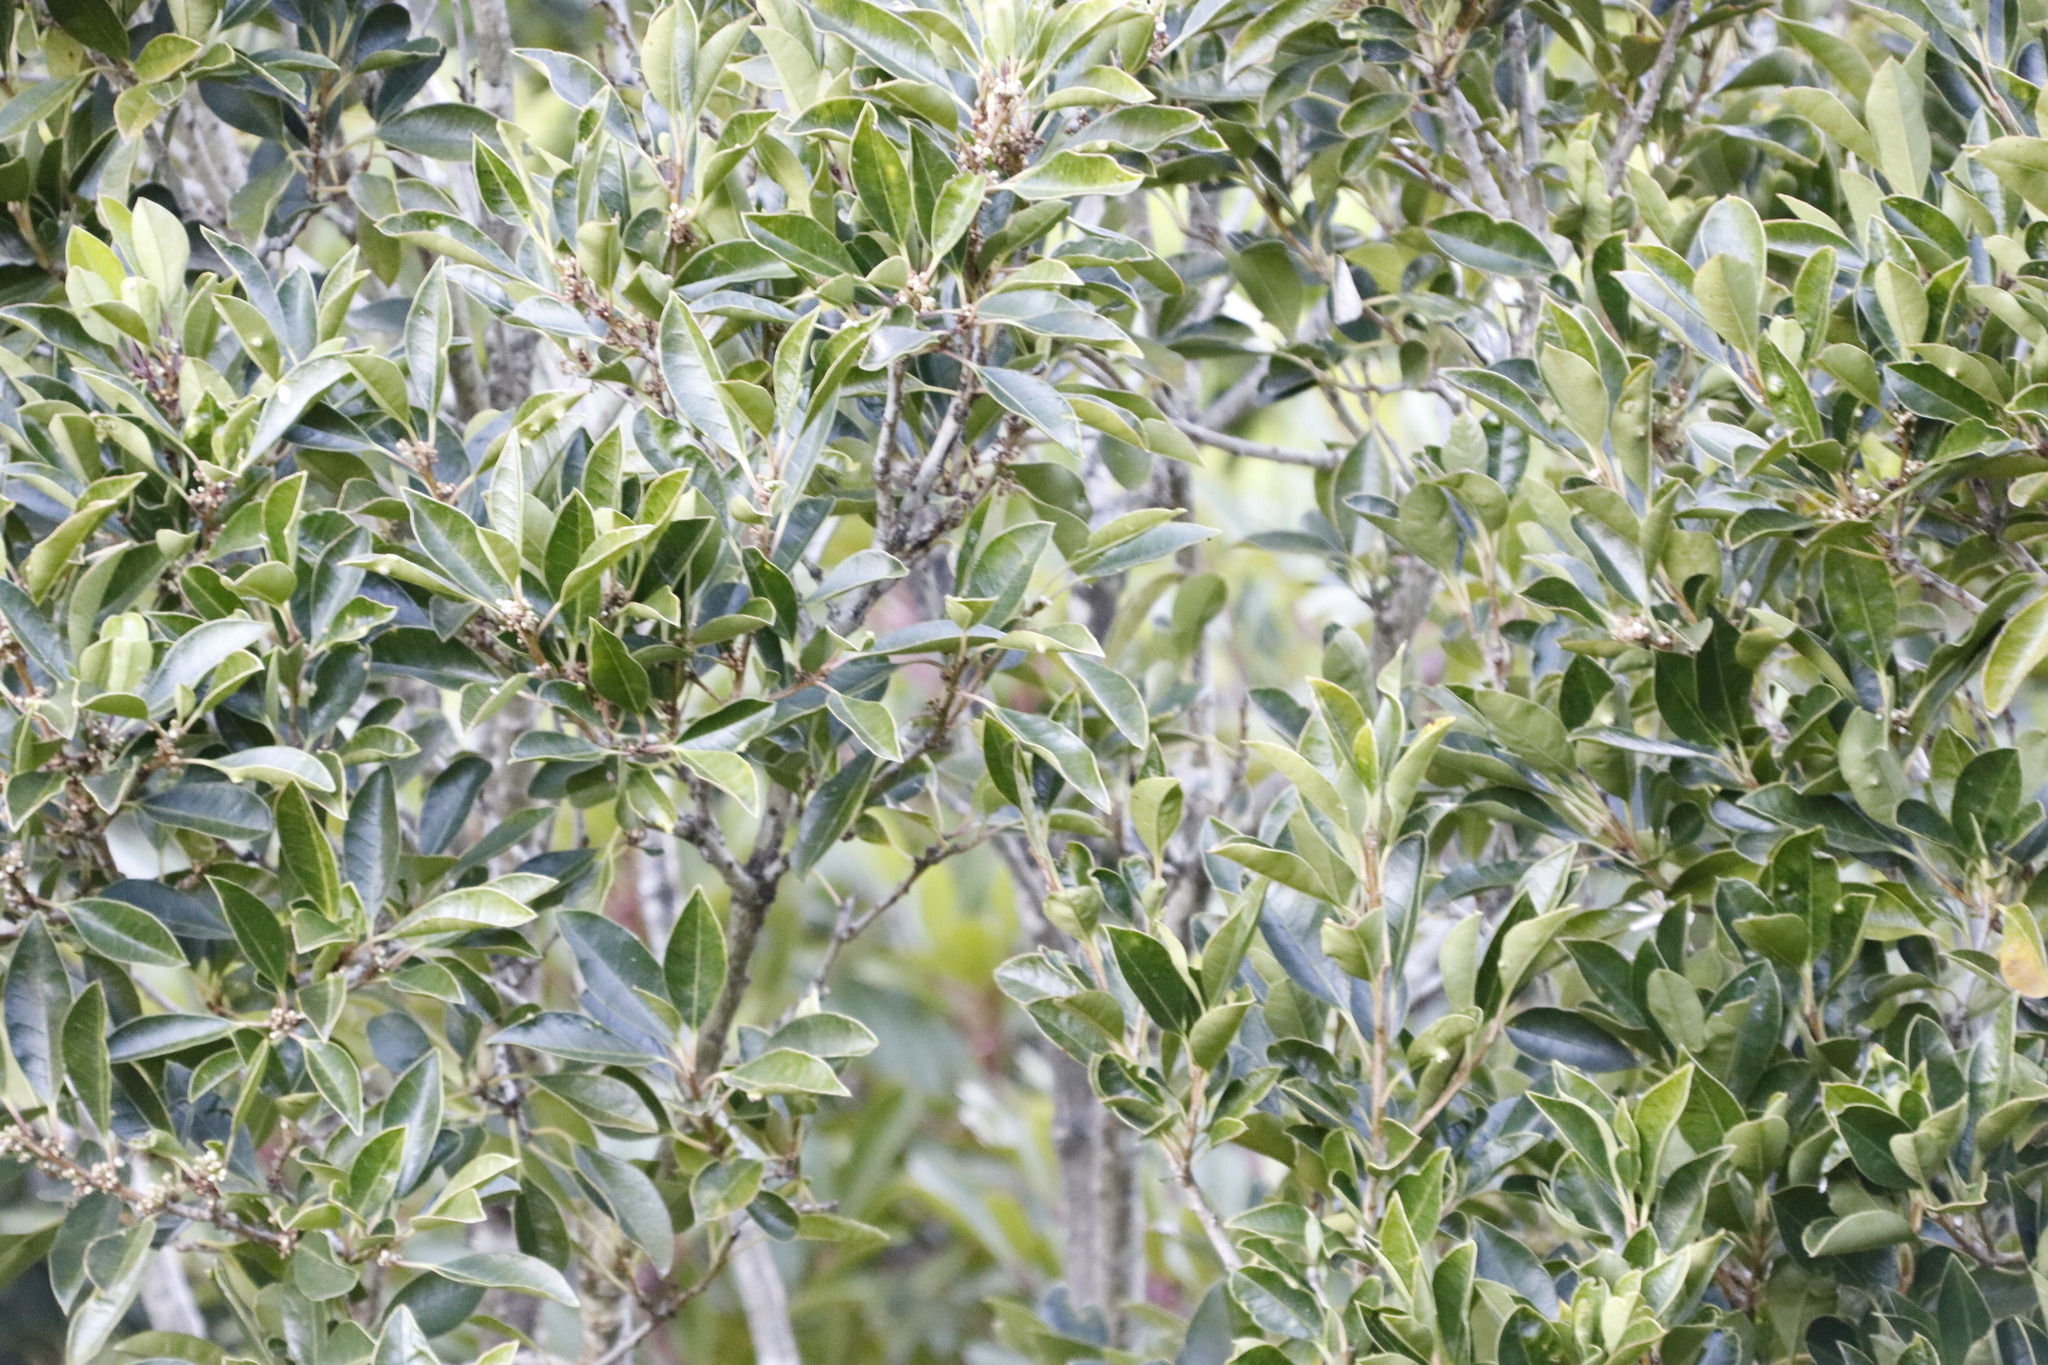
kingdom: Plantae
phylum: Tracheophyta
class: Magnoliopsida
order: Malpighiales
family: Achariaceae
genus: Kiggelaria
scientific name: Kiggelaria africana
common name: Wild peach
